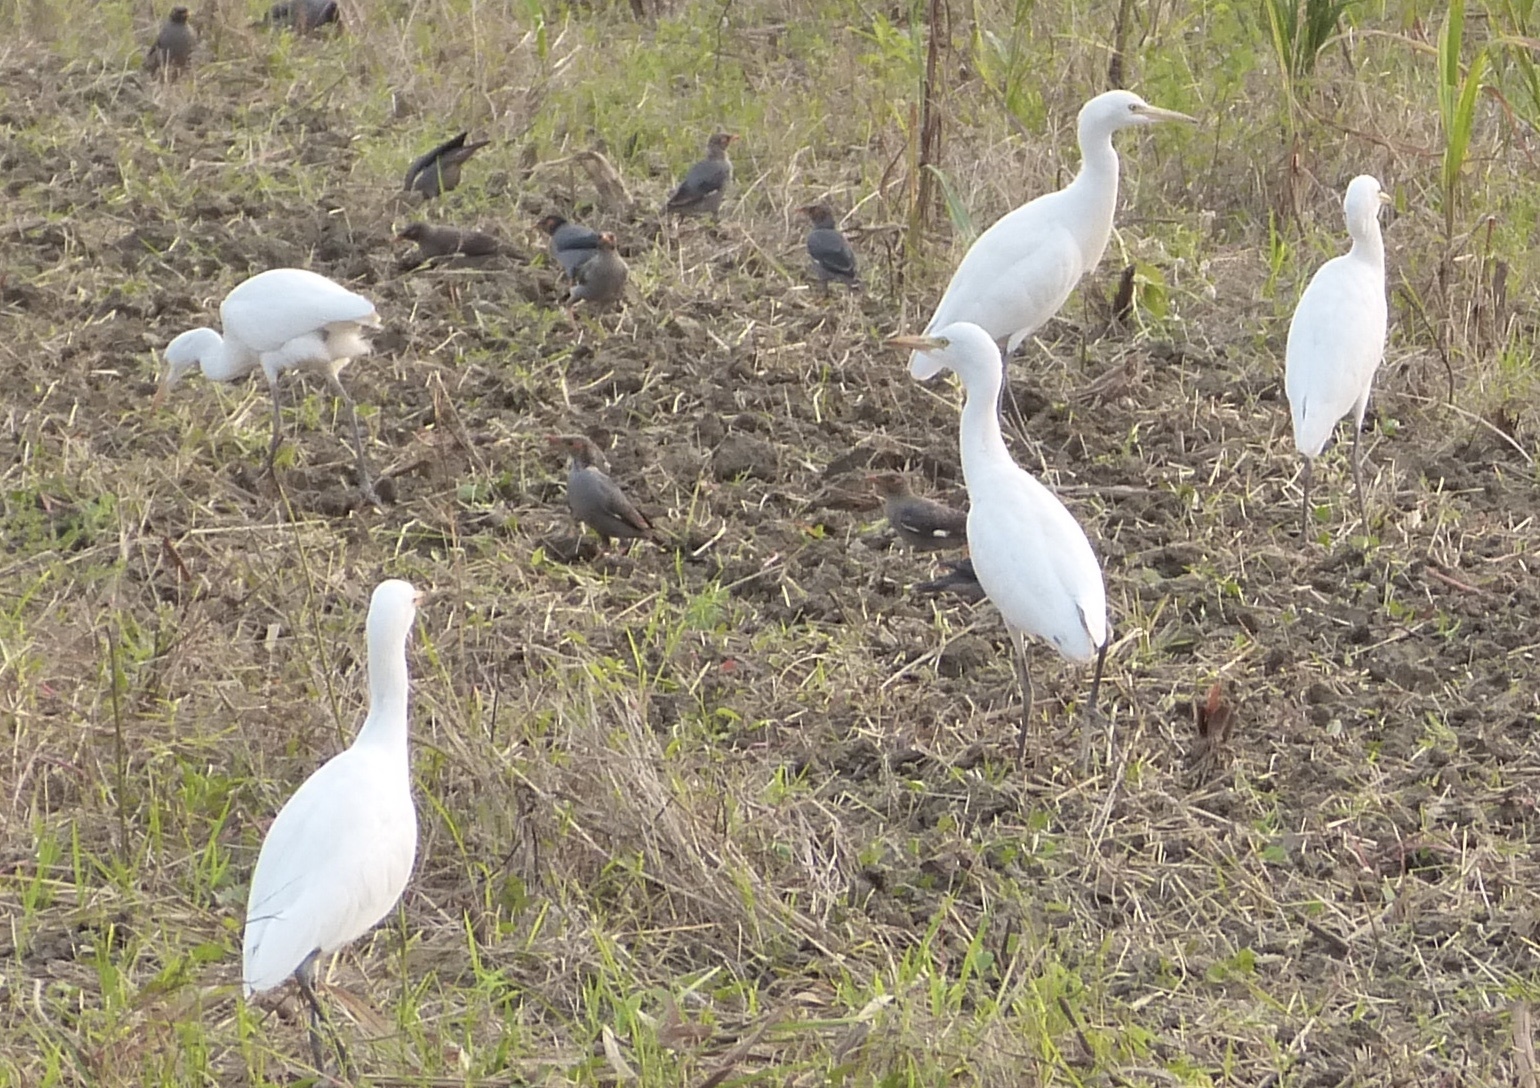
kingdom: Animalia
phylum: Chordata
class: Aves
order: Pelecaniformes
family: Ardeidae
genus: Bubulcus
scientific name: Bubulcus coromandus
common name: Eastern cattle egret
